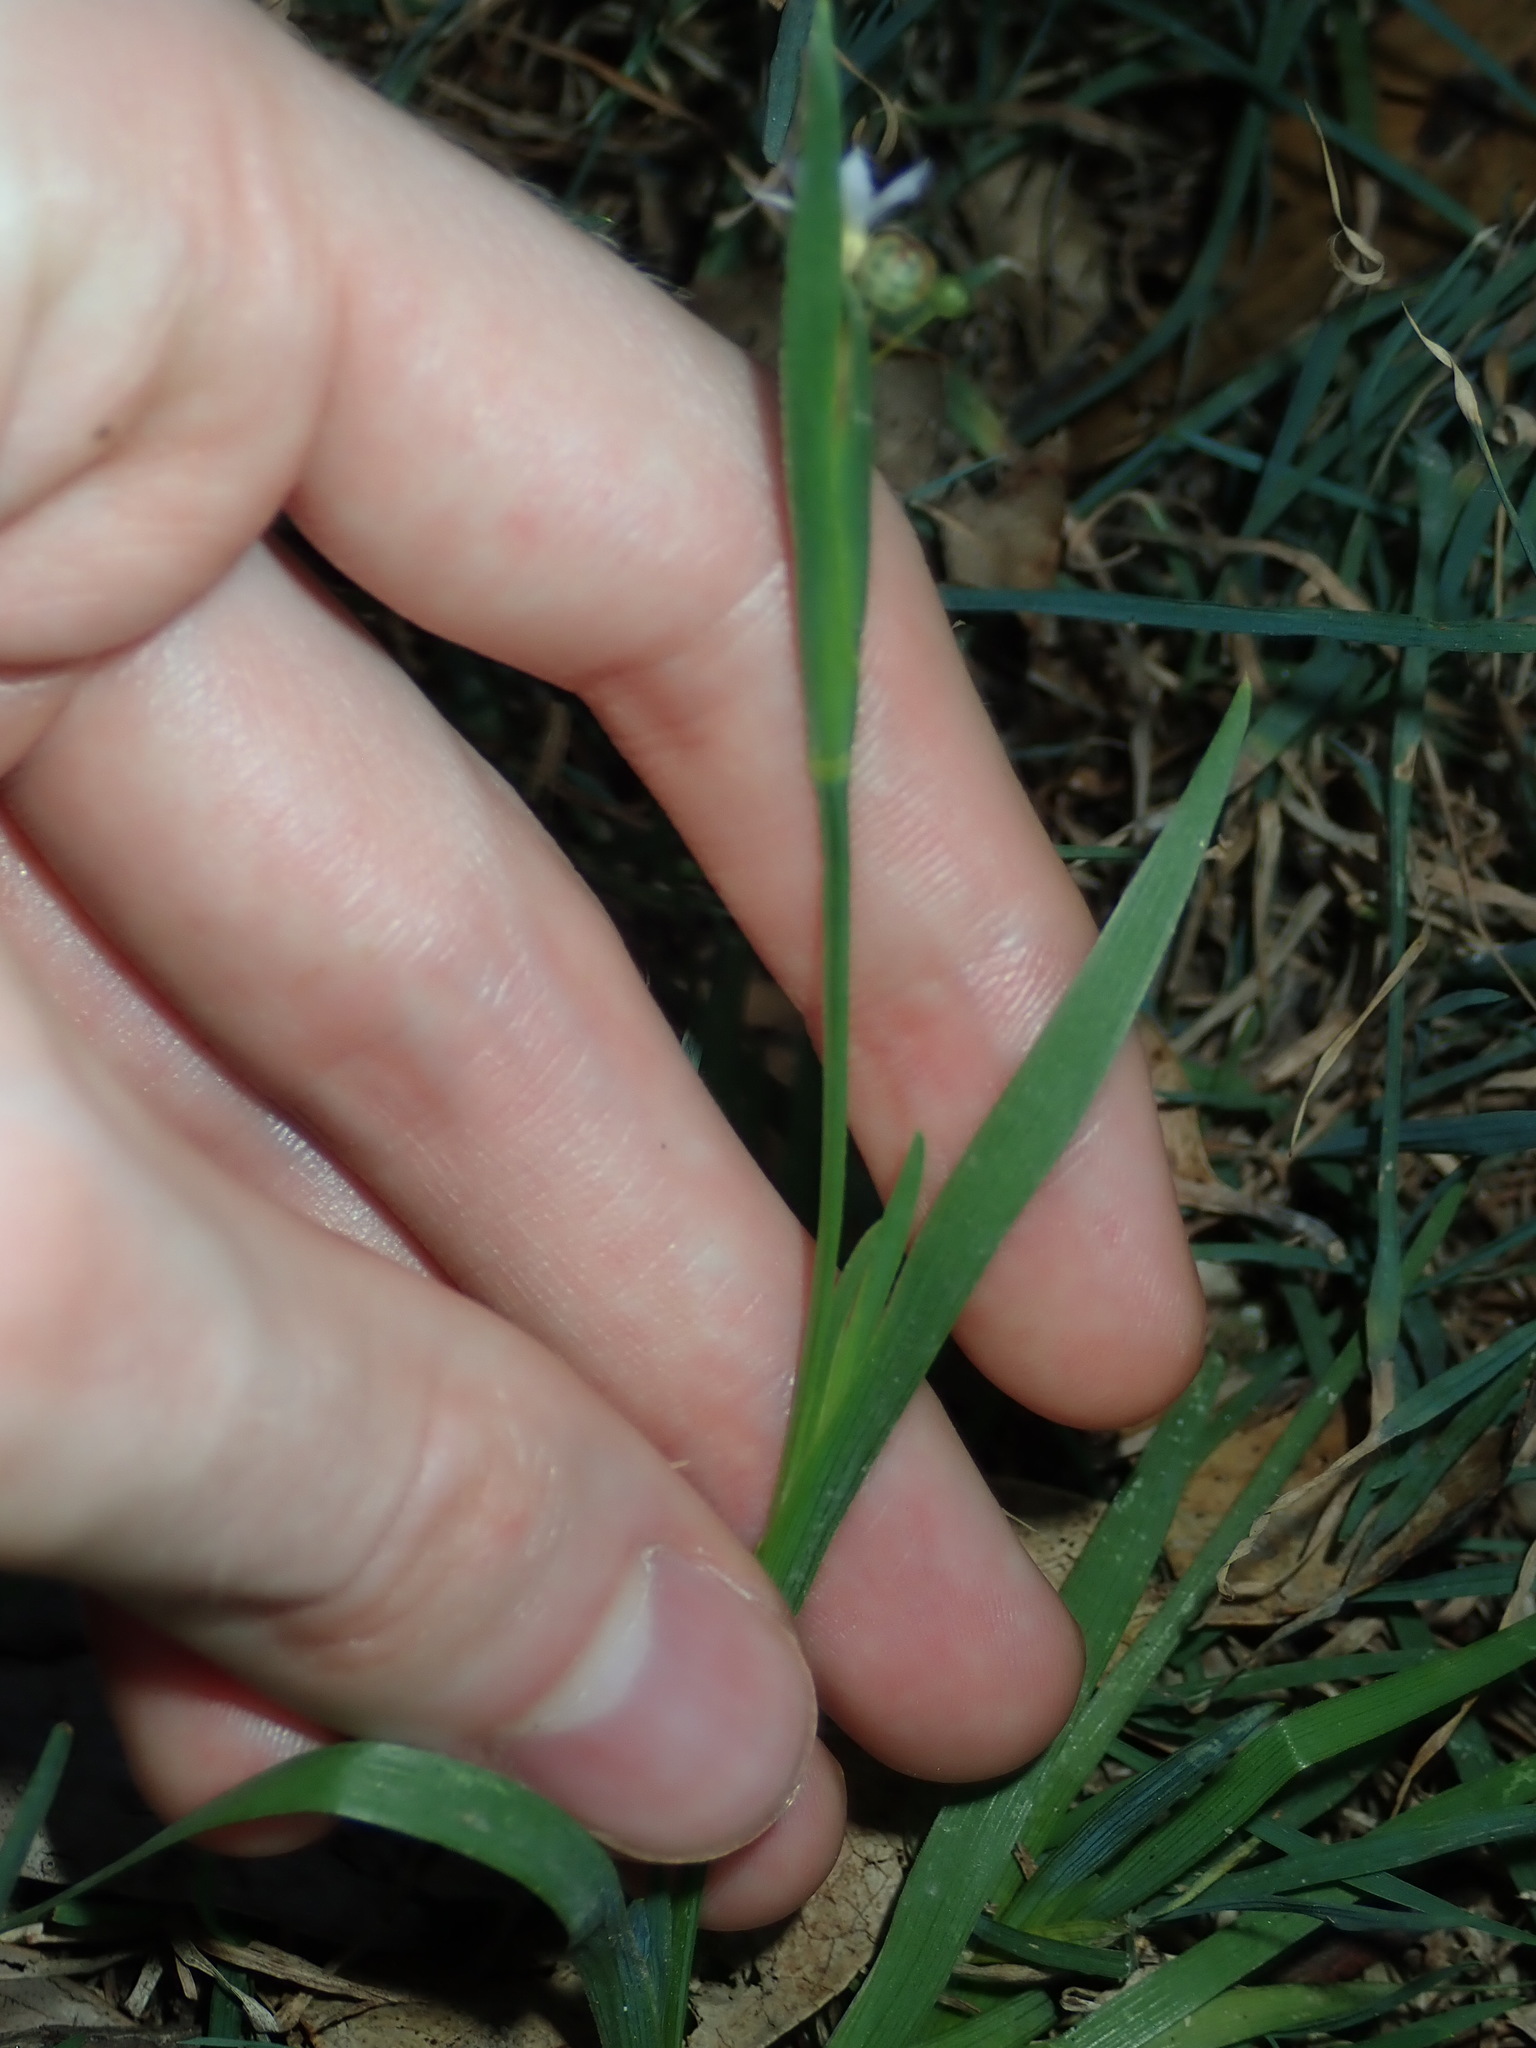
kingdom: Plantae
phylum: Tracheophyta
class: Liliopsida
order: Asparagales
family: Iridaceae
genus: Sisyrinchium
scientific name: Sisyrinchium micranthum
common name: Bermuda pigroot
